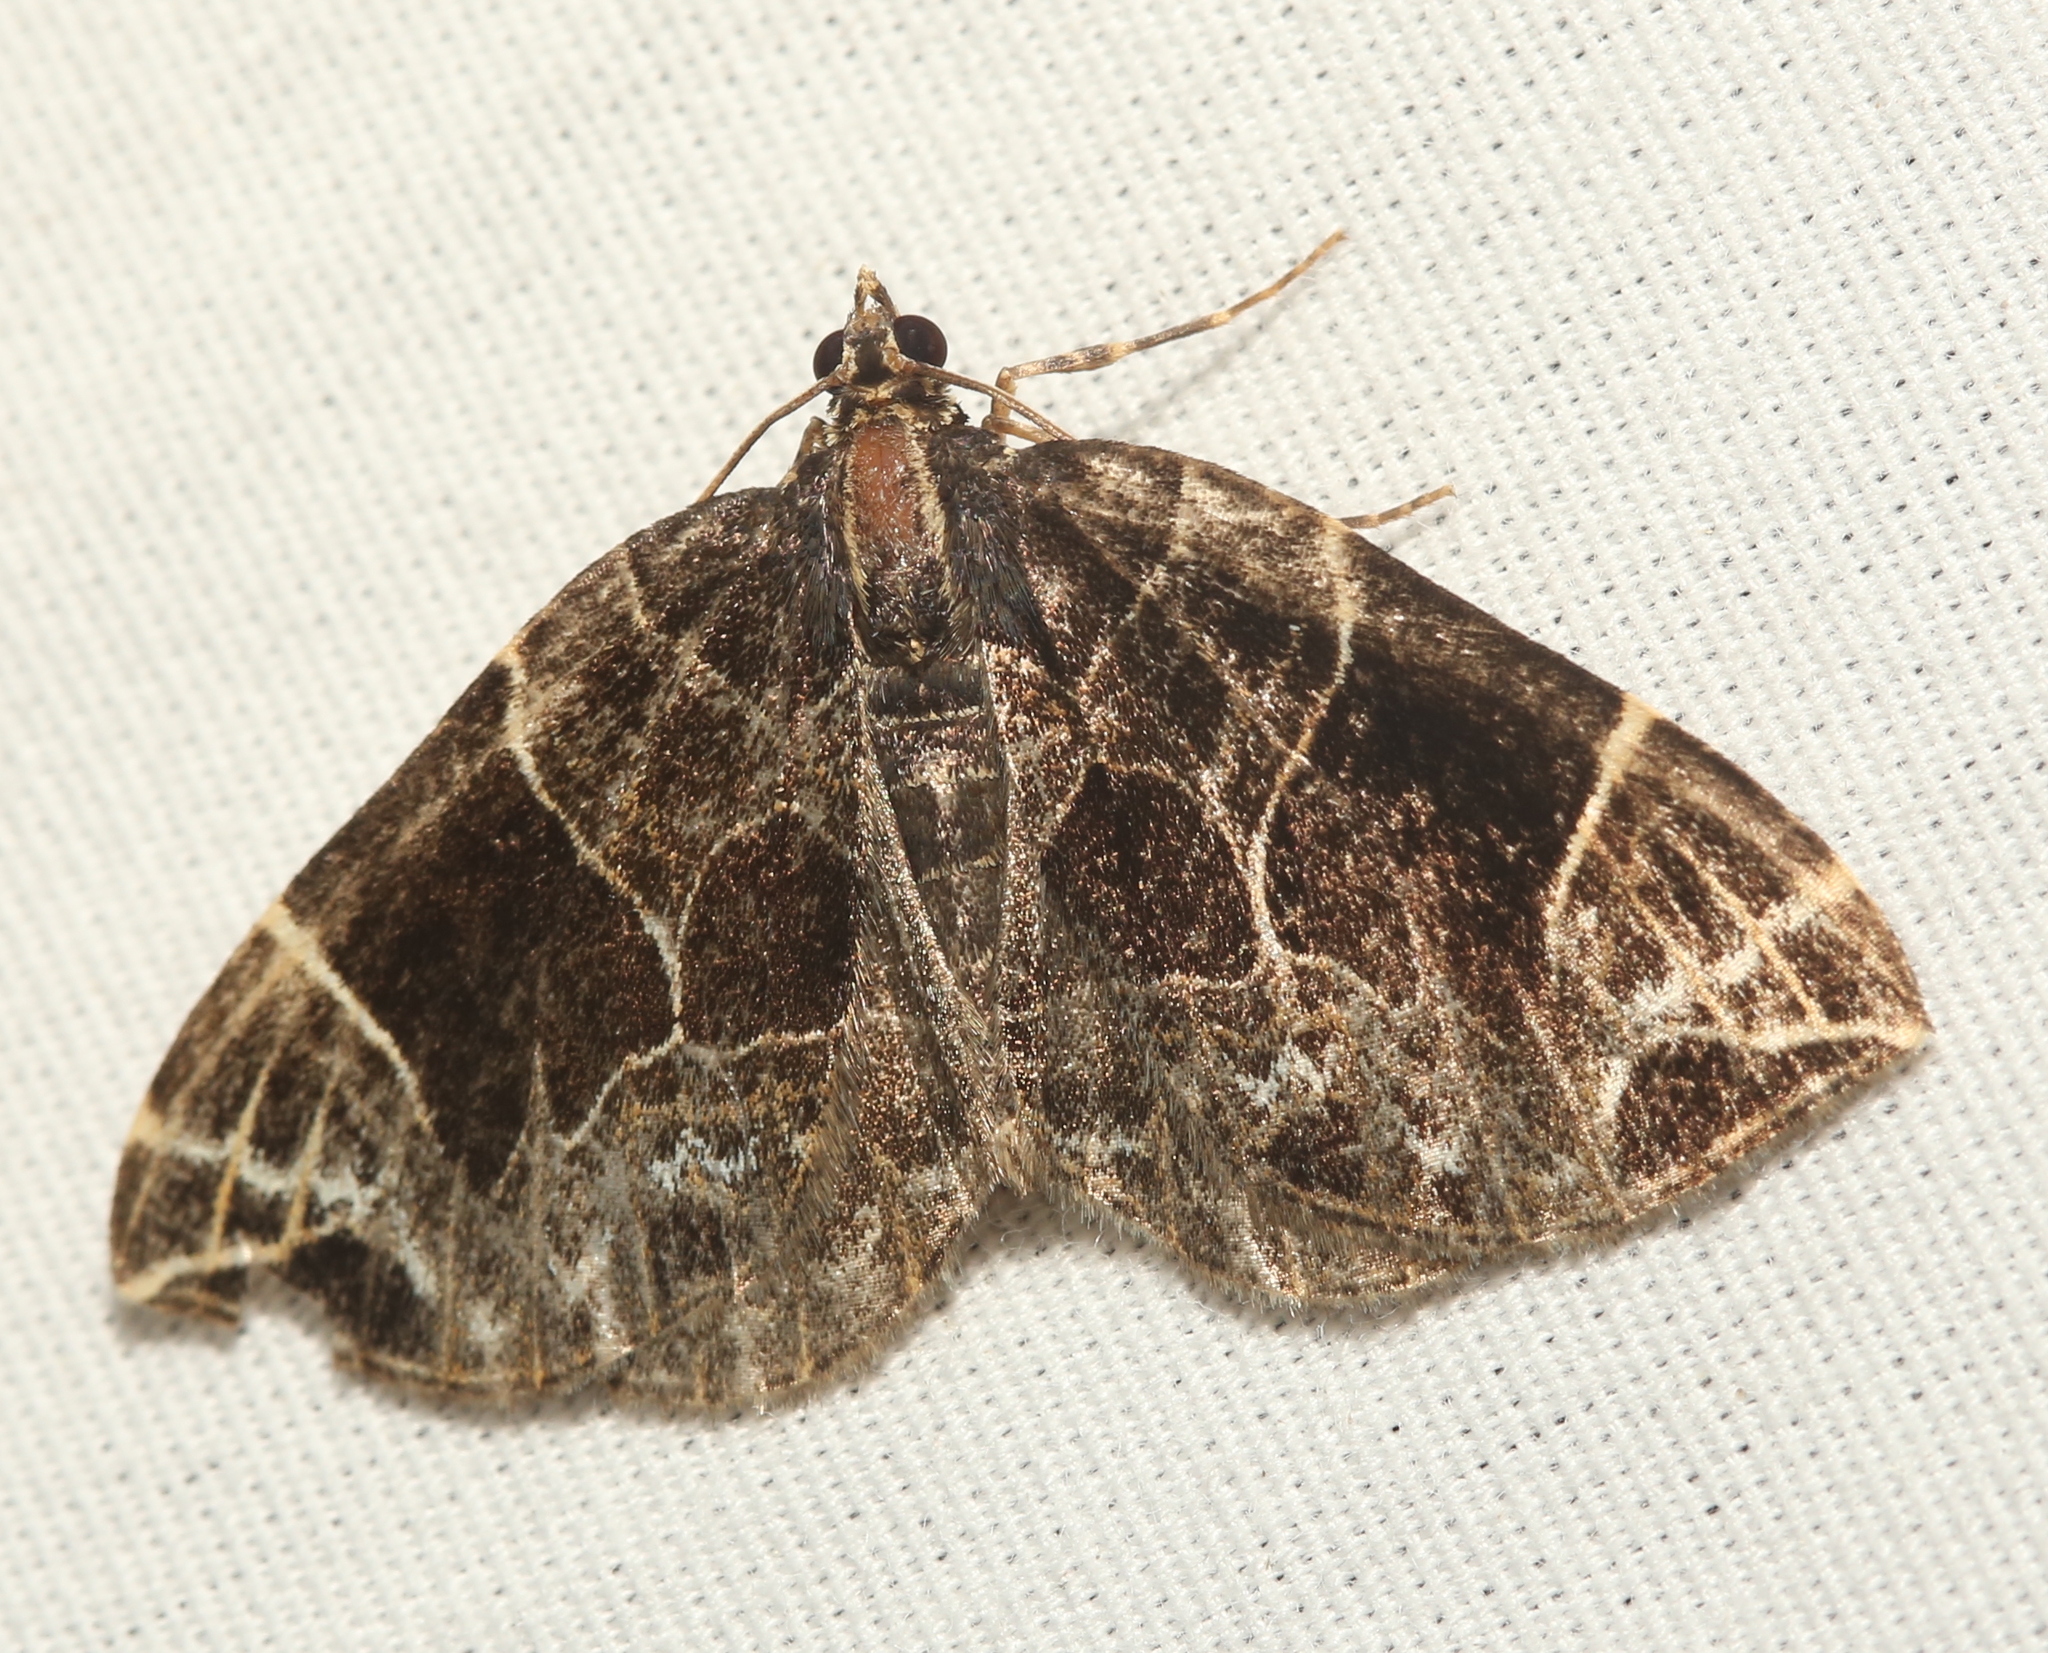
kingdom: Animalia
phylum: Arthropoda
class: Insecta
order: Lepidoptera
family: Geometridae
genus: Ecliptopera
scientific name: Ecliptopera atricolorata
